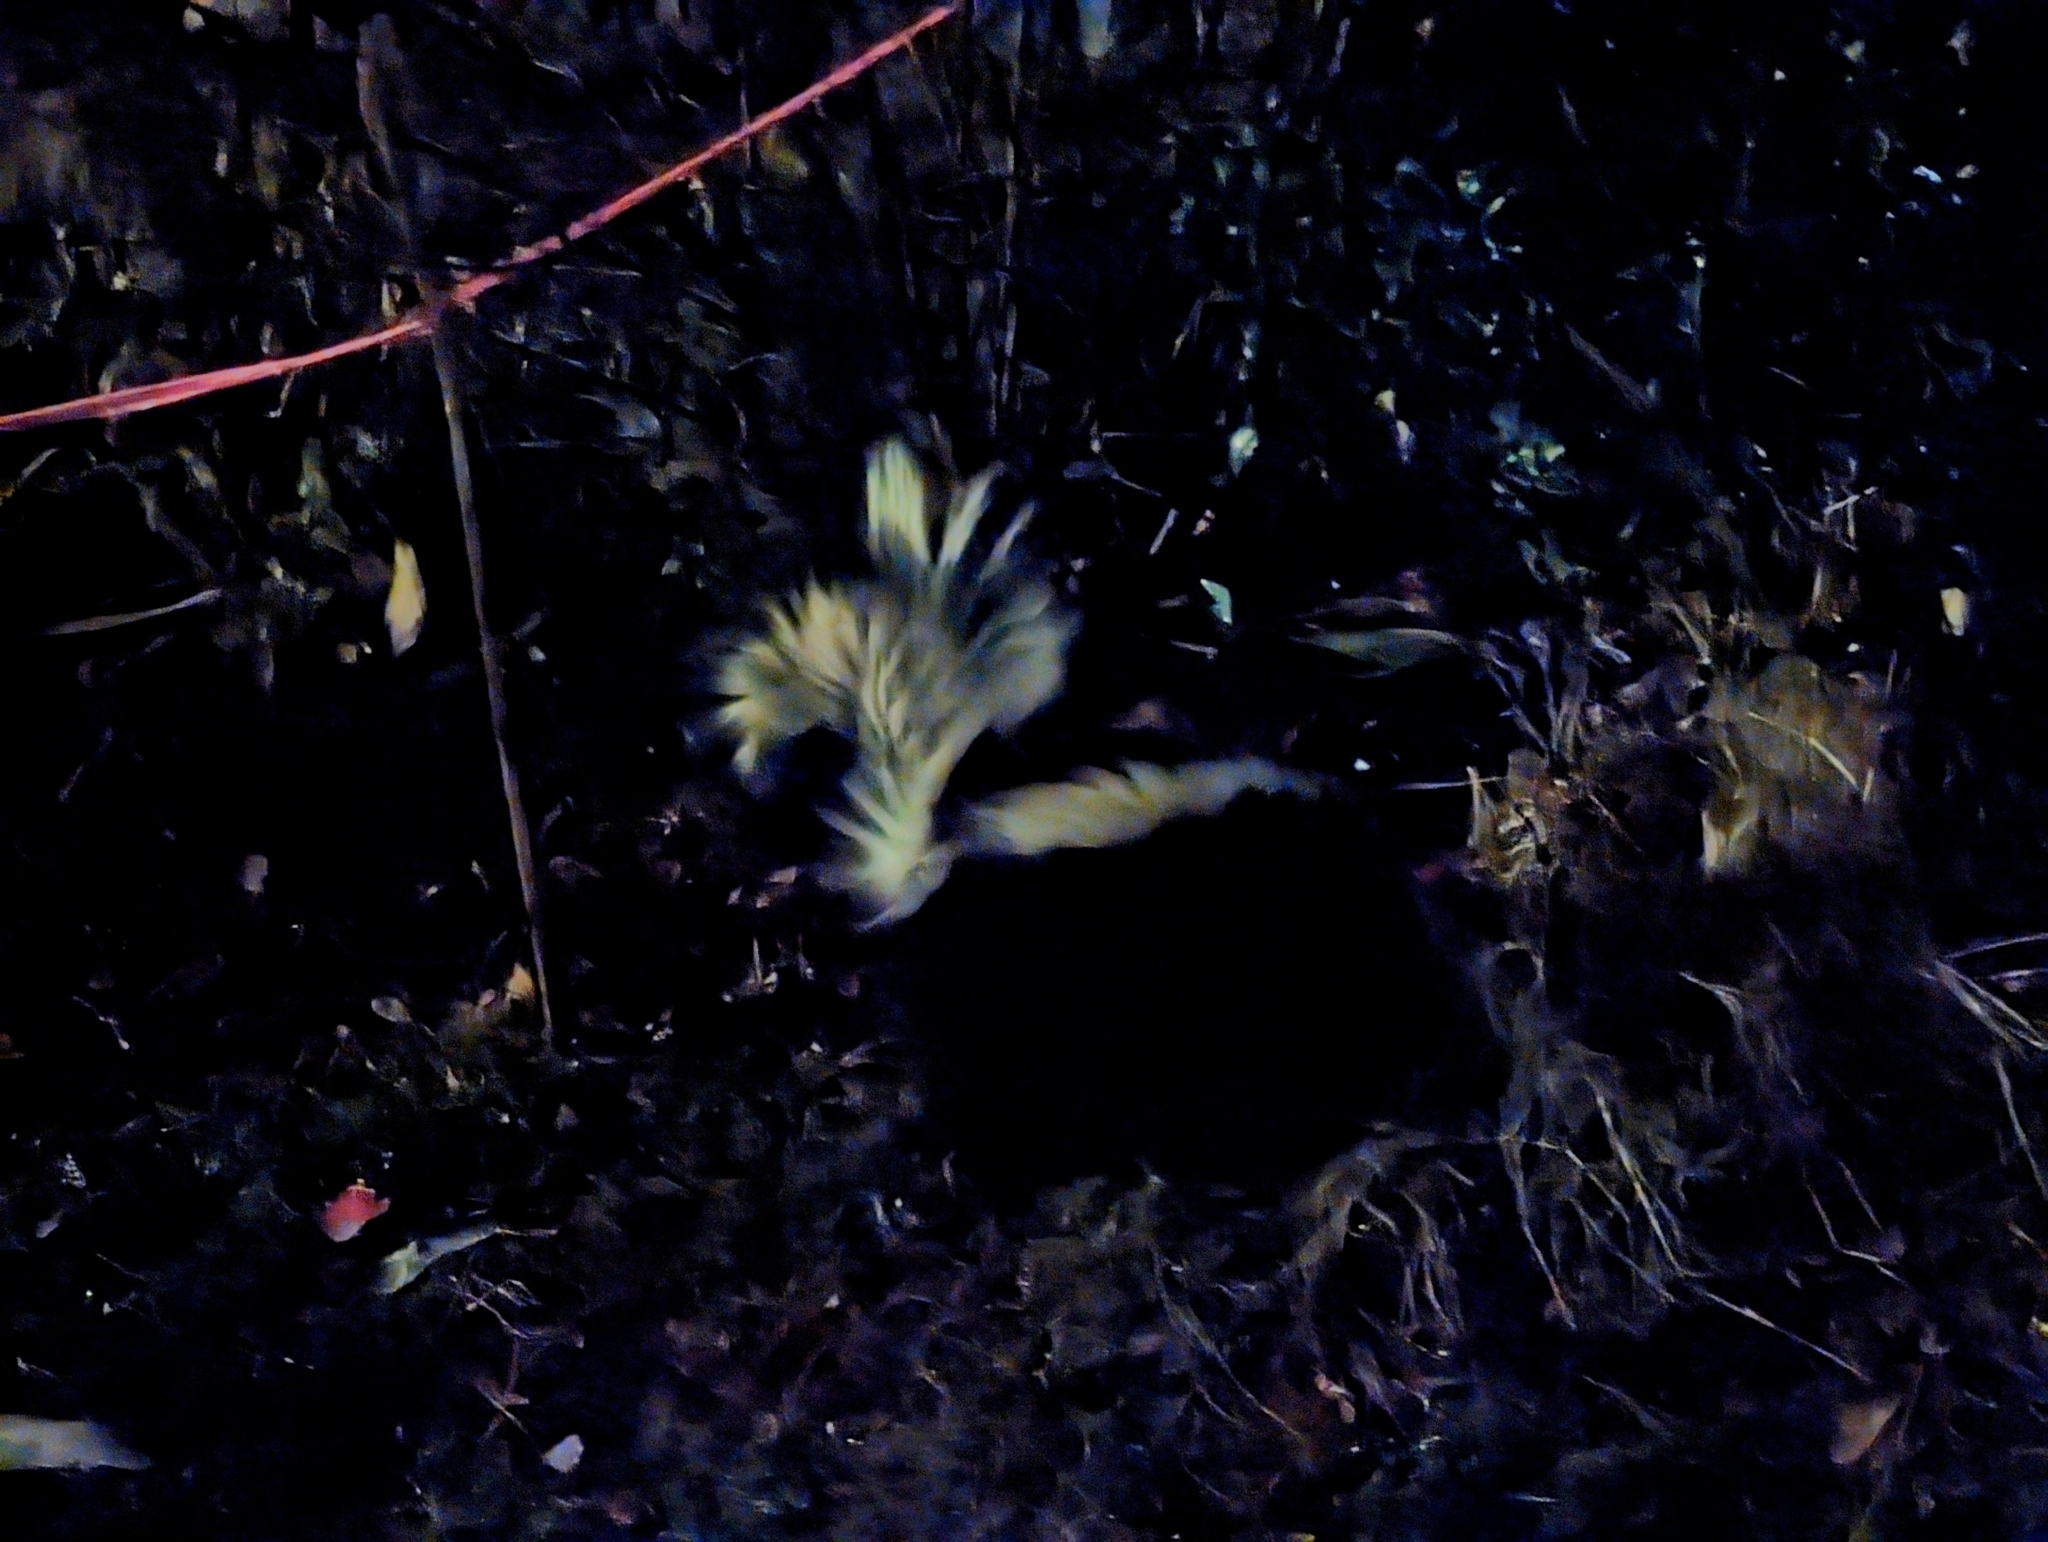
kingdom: Animalia
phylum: Chordata
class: Mammalia
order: Carnivora
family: Mephitidae
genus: Mephitis
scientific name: Mephitis mephitis
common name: Striped skunk
